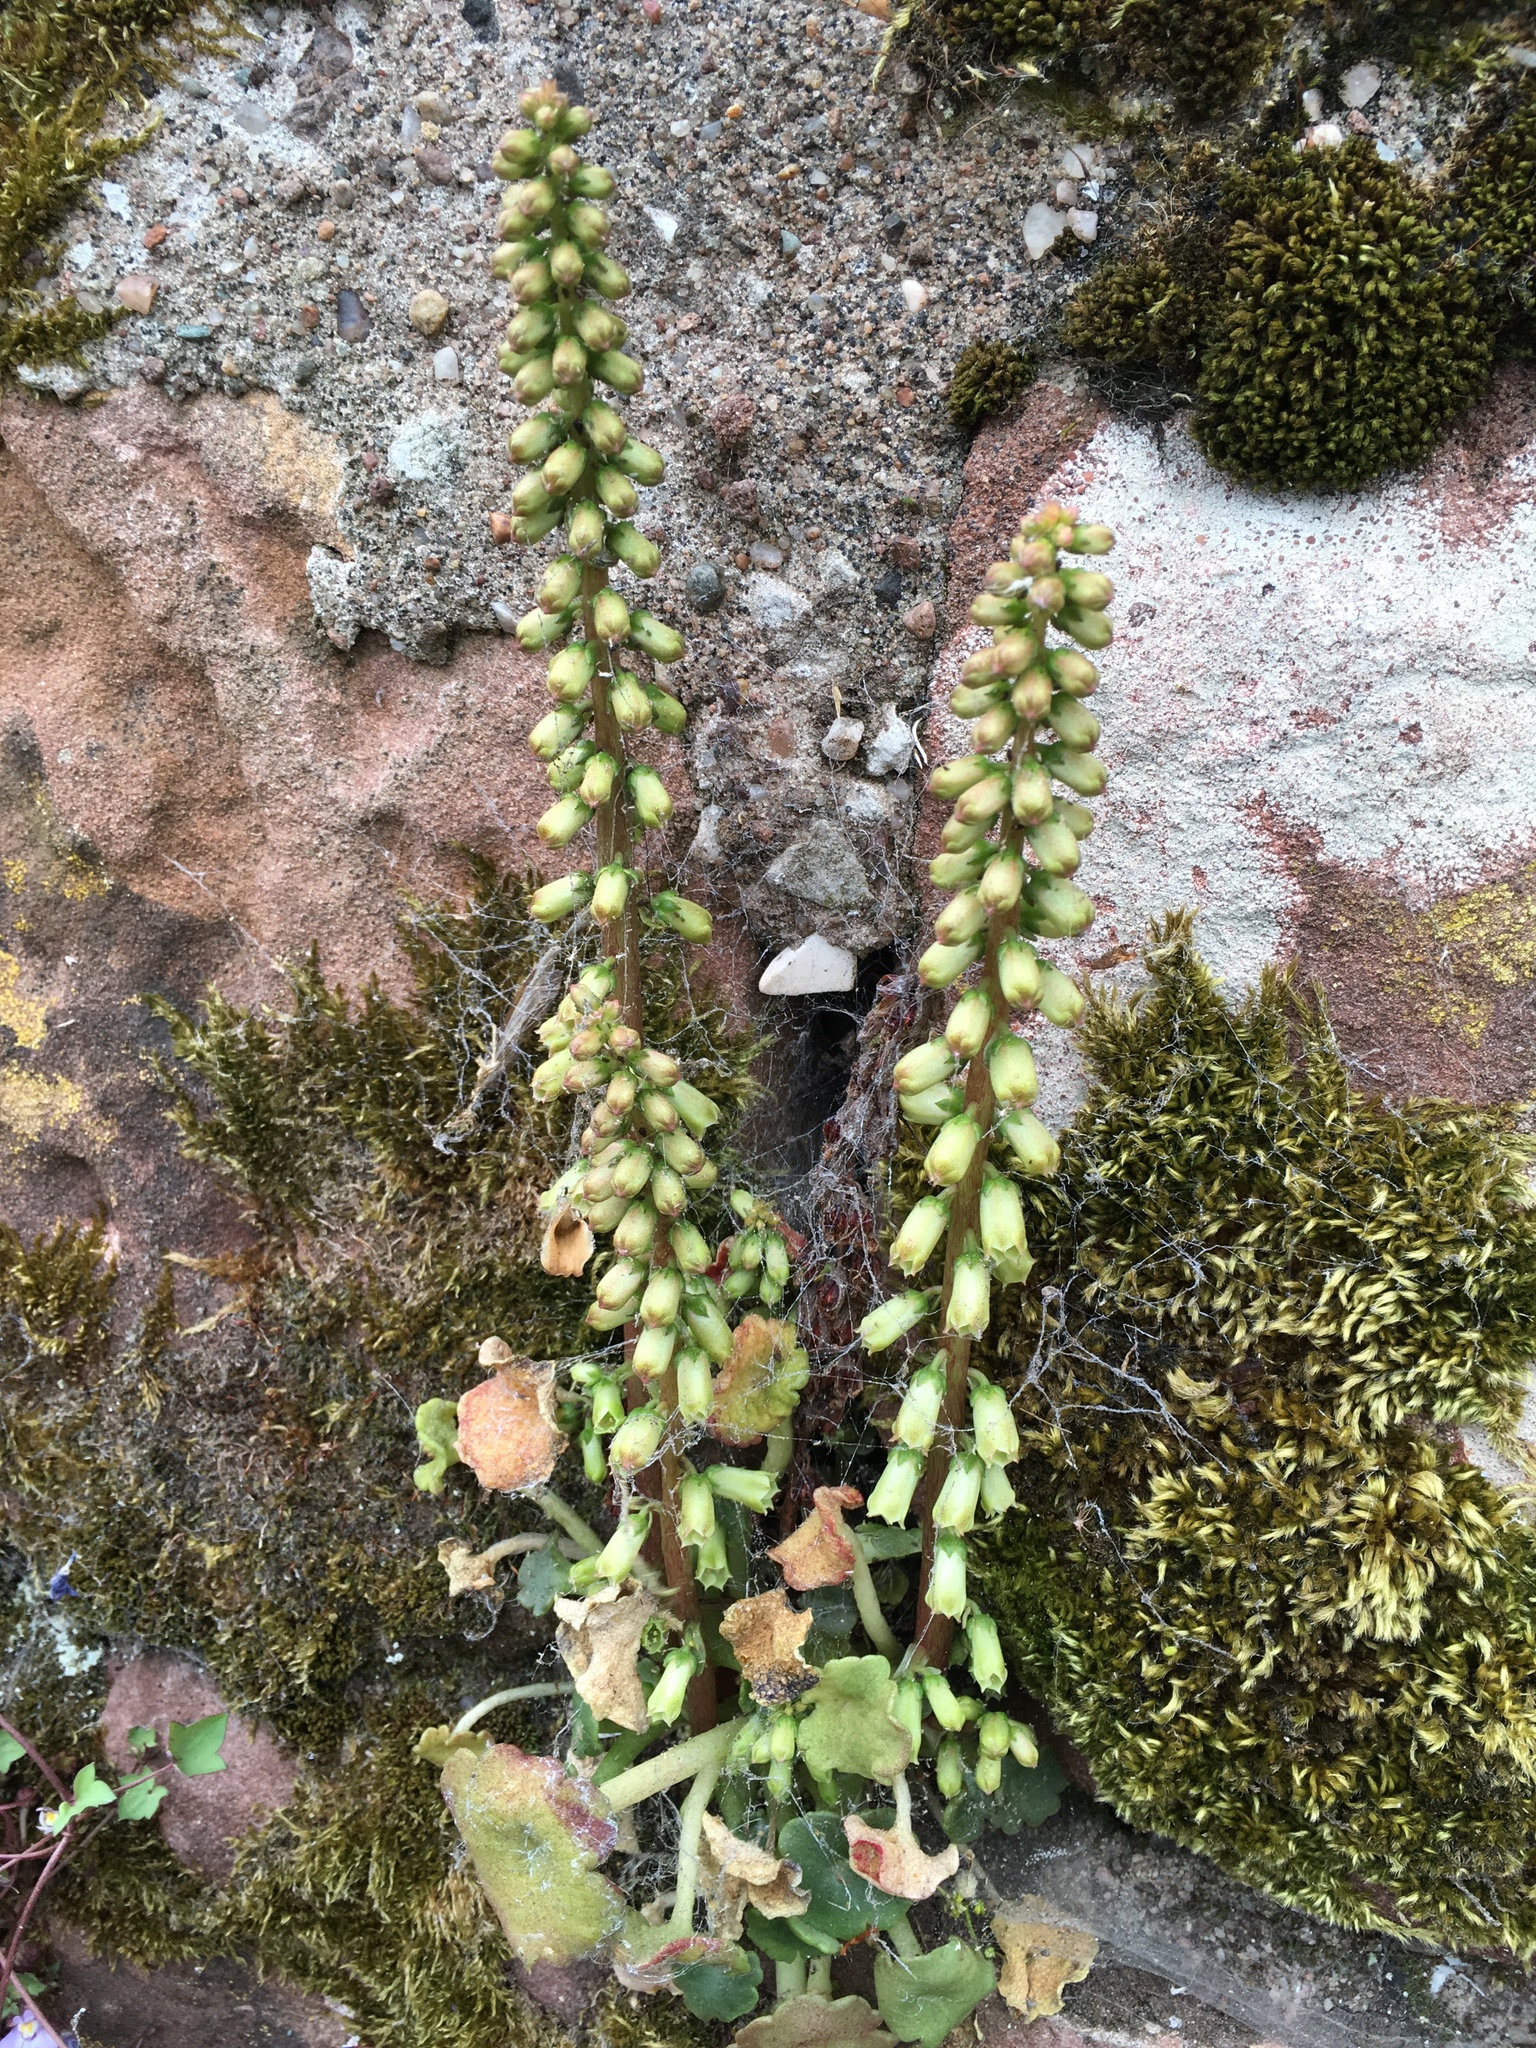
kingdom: Plantae
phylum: Tracheophyta
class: Magnoliopsida
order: Saxifragales
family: Crassulaceae
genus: Umbilicus
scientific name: Umbilicus rupestris
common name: Navelwort
